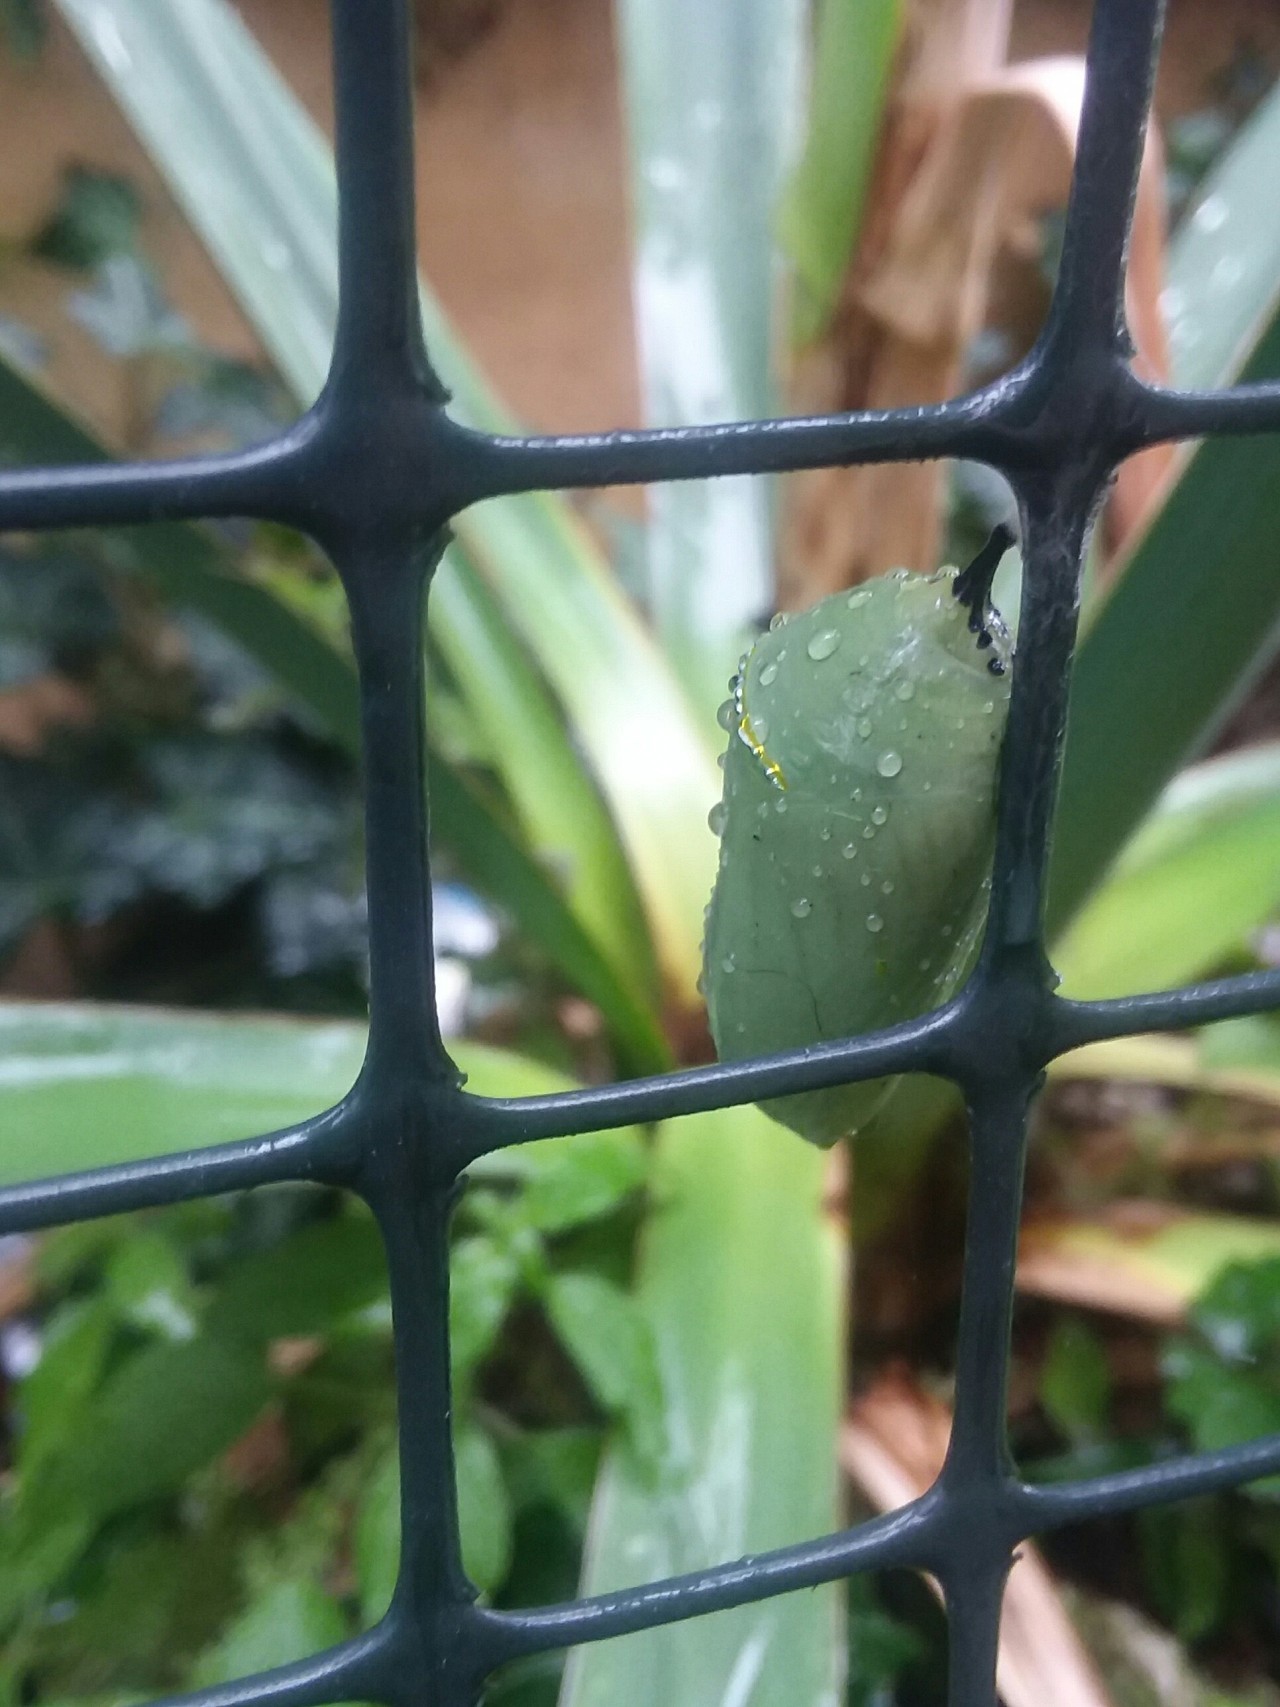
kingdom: Animalia
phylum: Arthropoda
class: Insecta
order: Lepidoptera
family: Nymphalidae
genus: Danaus
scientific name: Danaus plexippus
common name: Monarch
